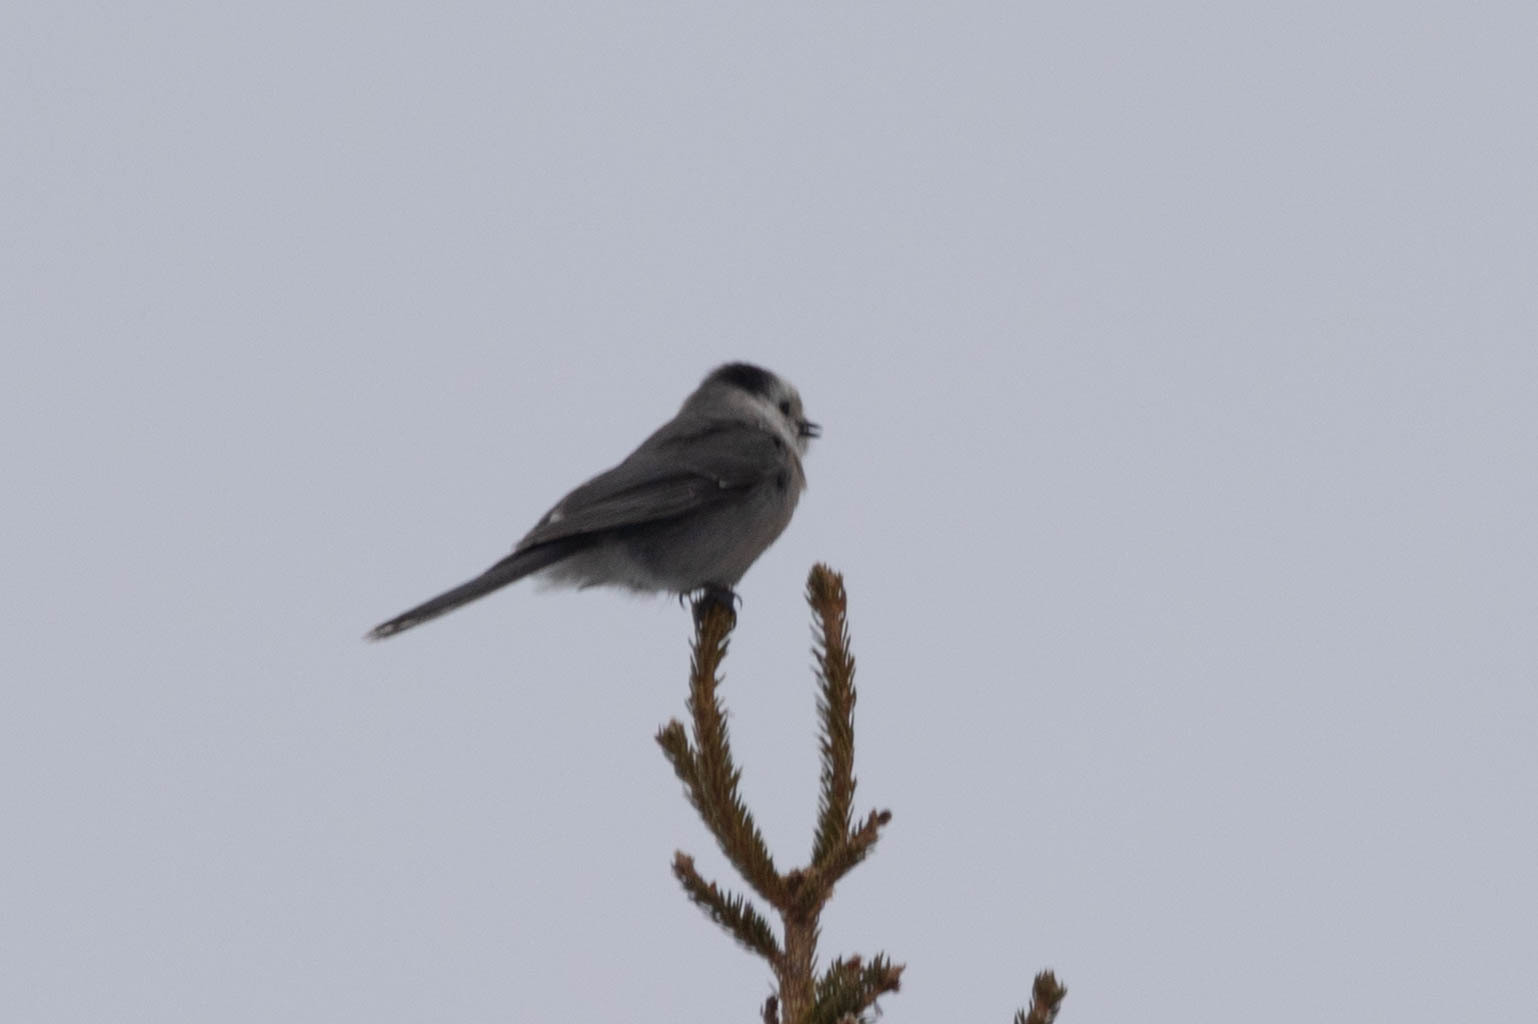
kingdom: Animalia
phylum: Chordata
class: Aves
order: Passeriformes
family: Corvidae
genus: Perisoreus
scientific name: Perisoreus canadensis
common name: Gray jay
